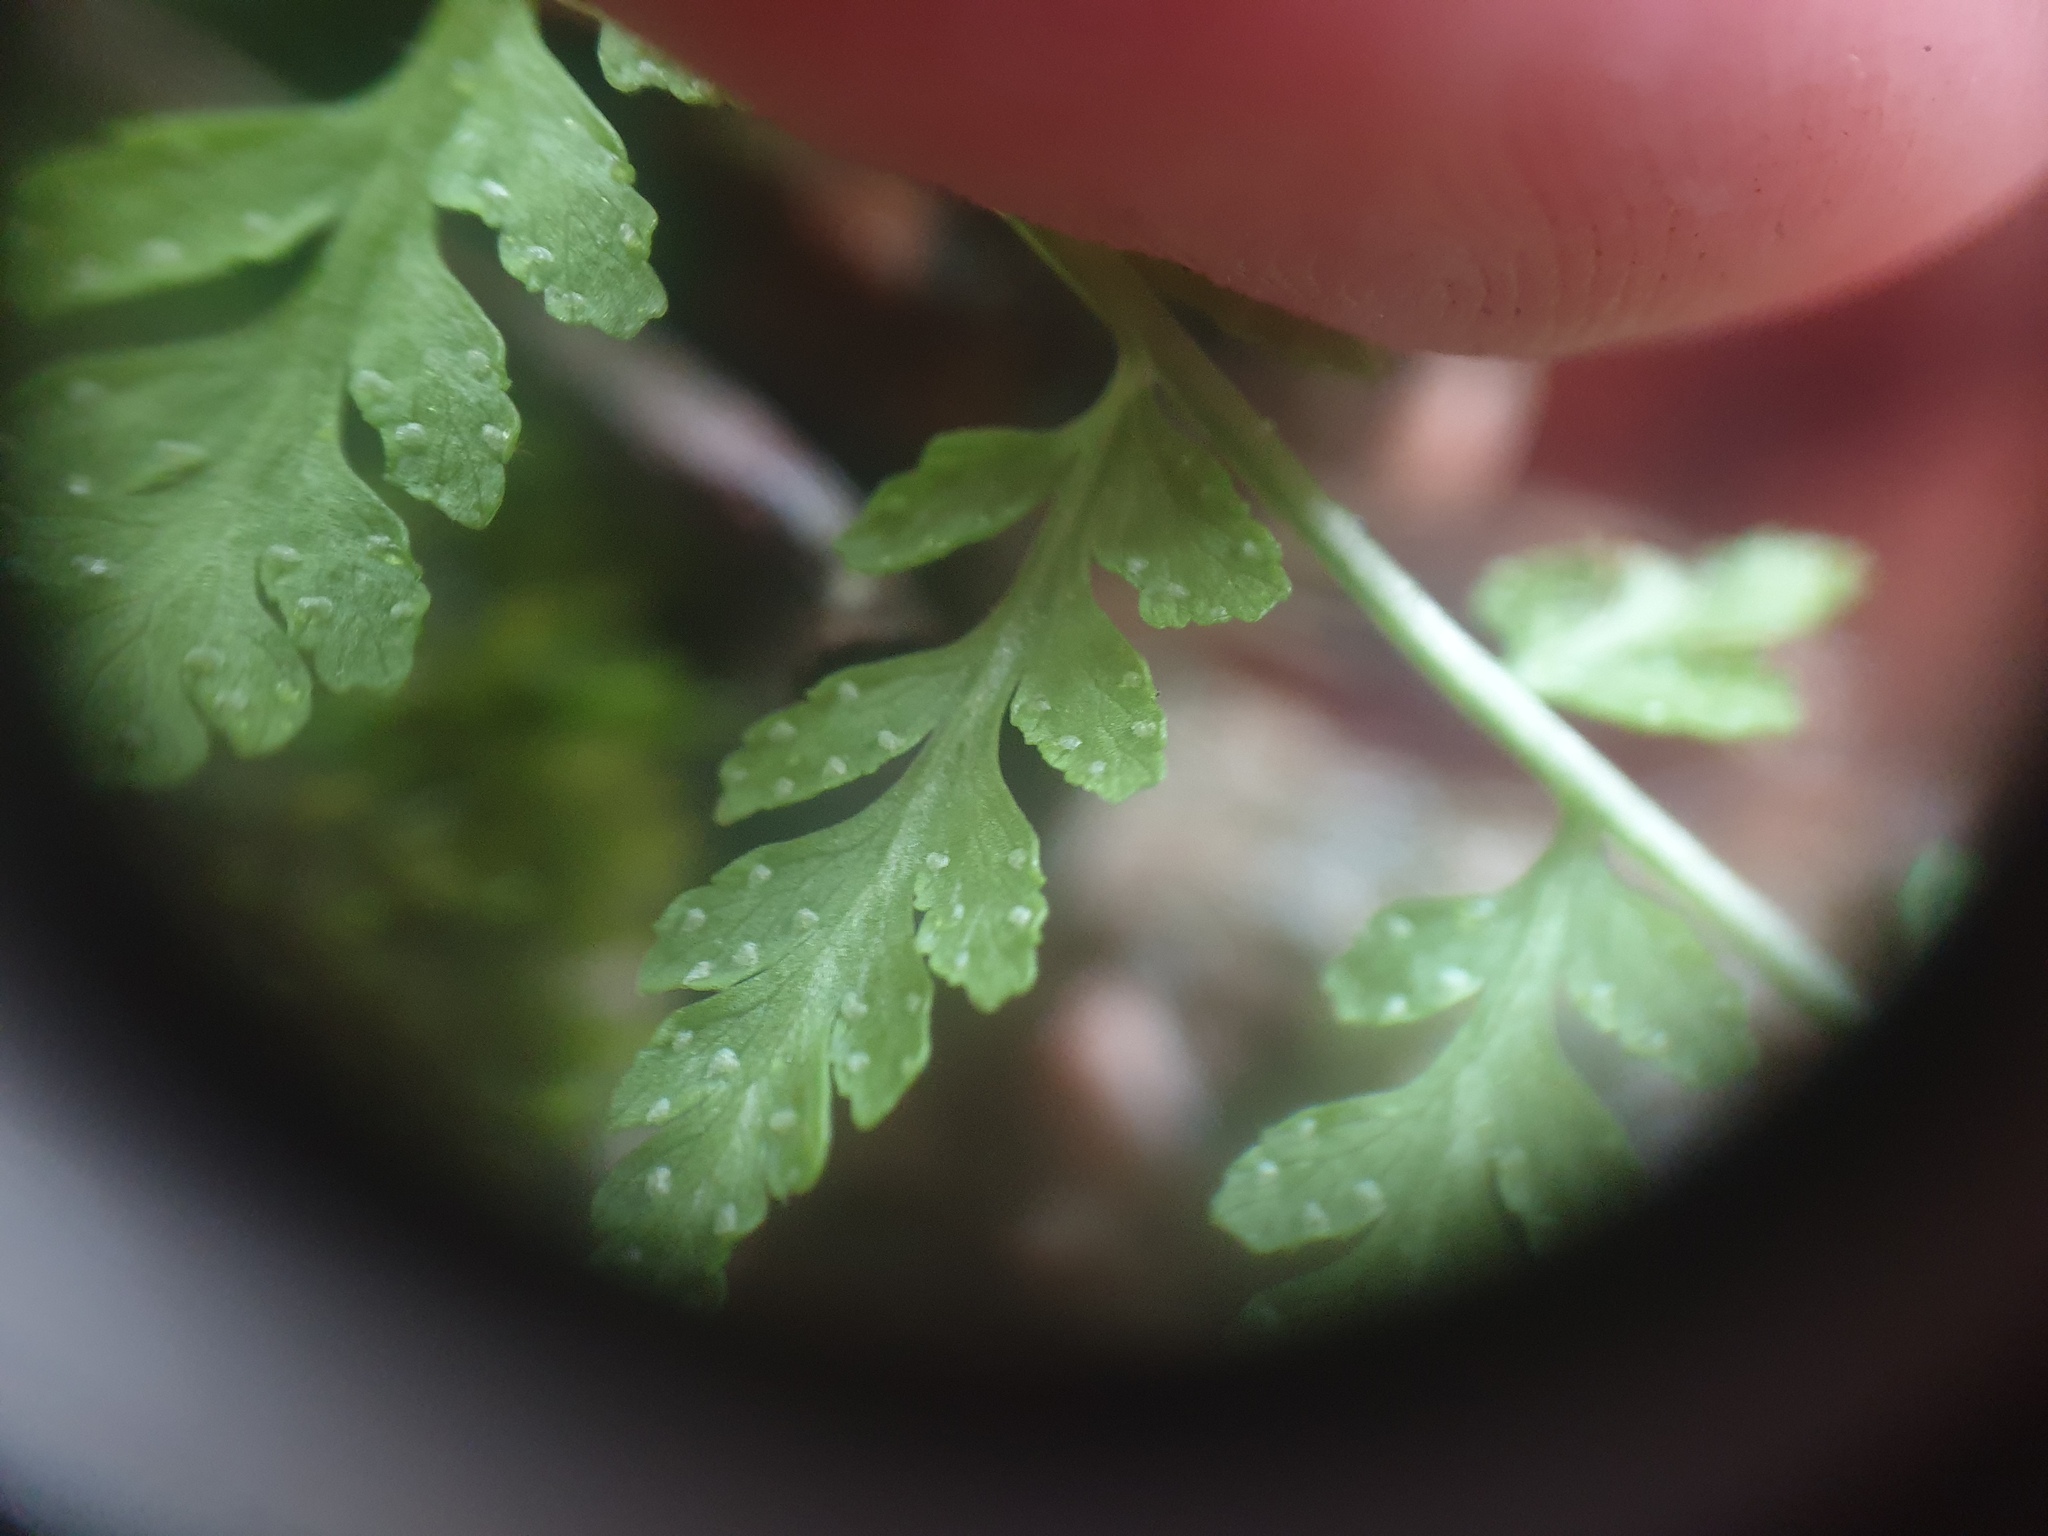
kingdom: Plantae
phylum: Tracheophyta
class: Polypodiopsida
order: Polypodiales
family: Cystopteridaceae
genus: Cystopteris
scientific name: Cystopteris tenuis
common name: Mackay's brittle fern
